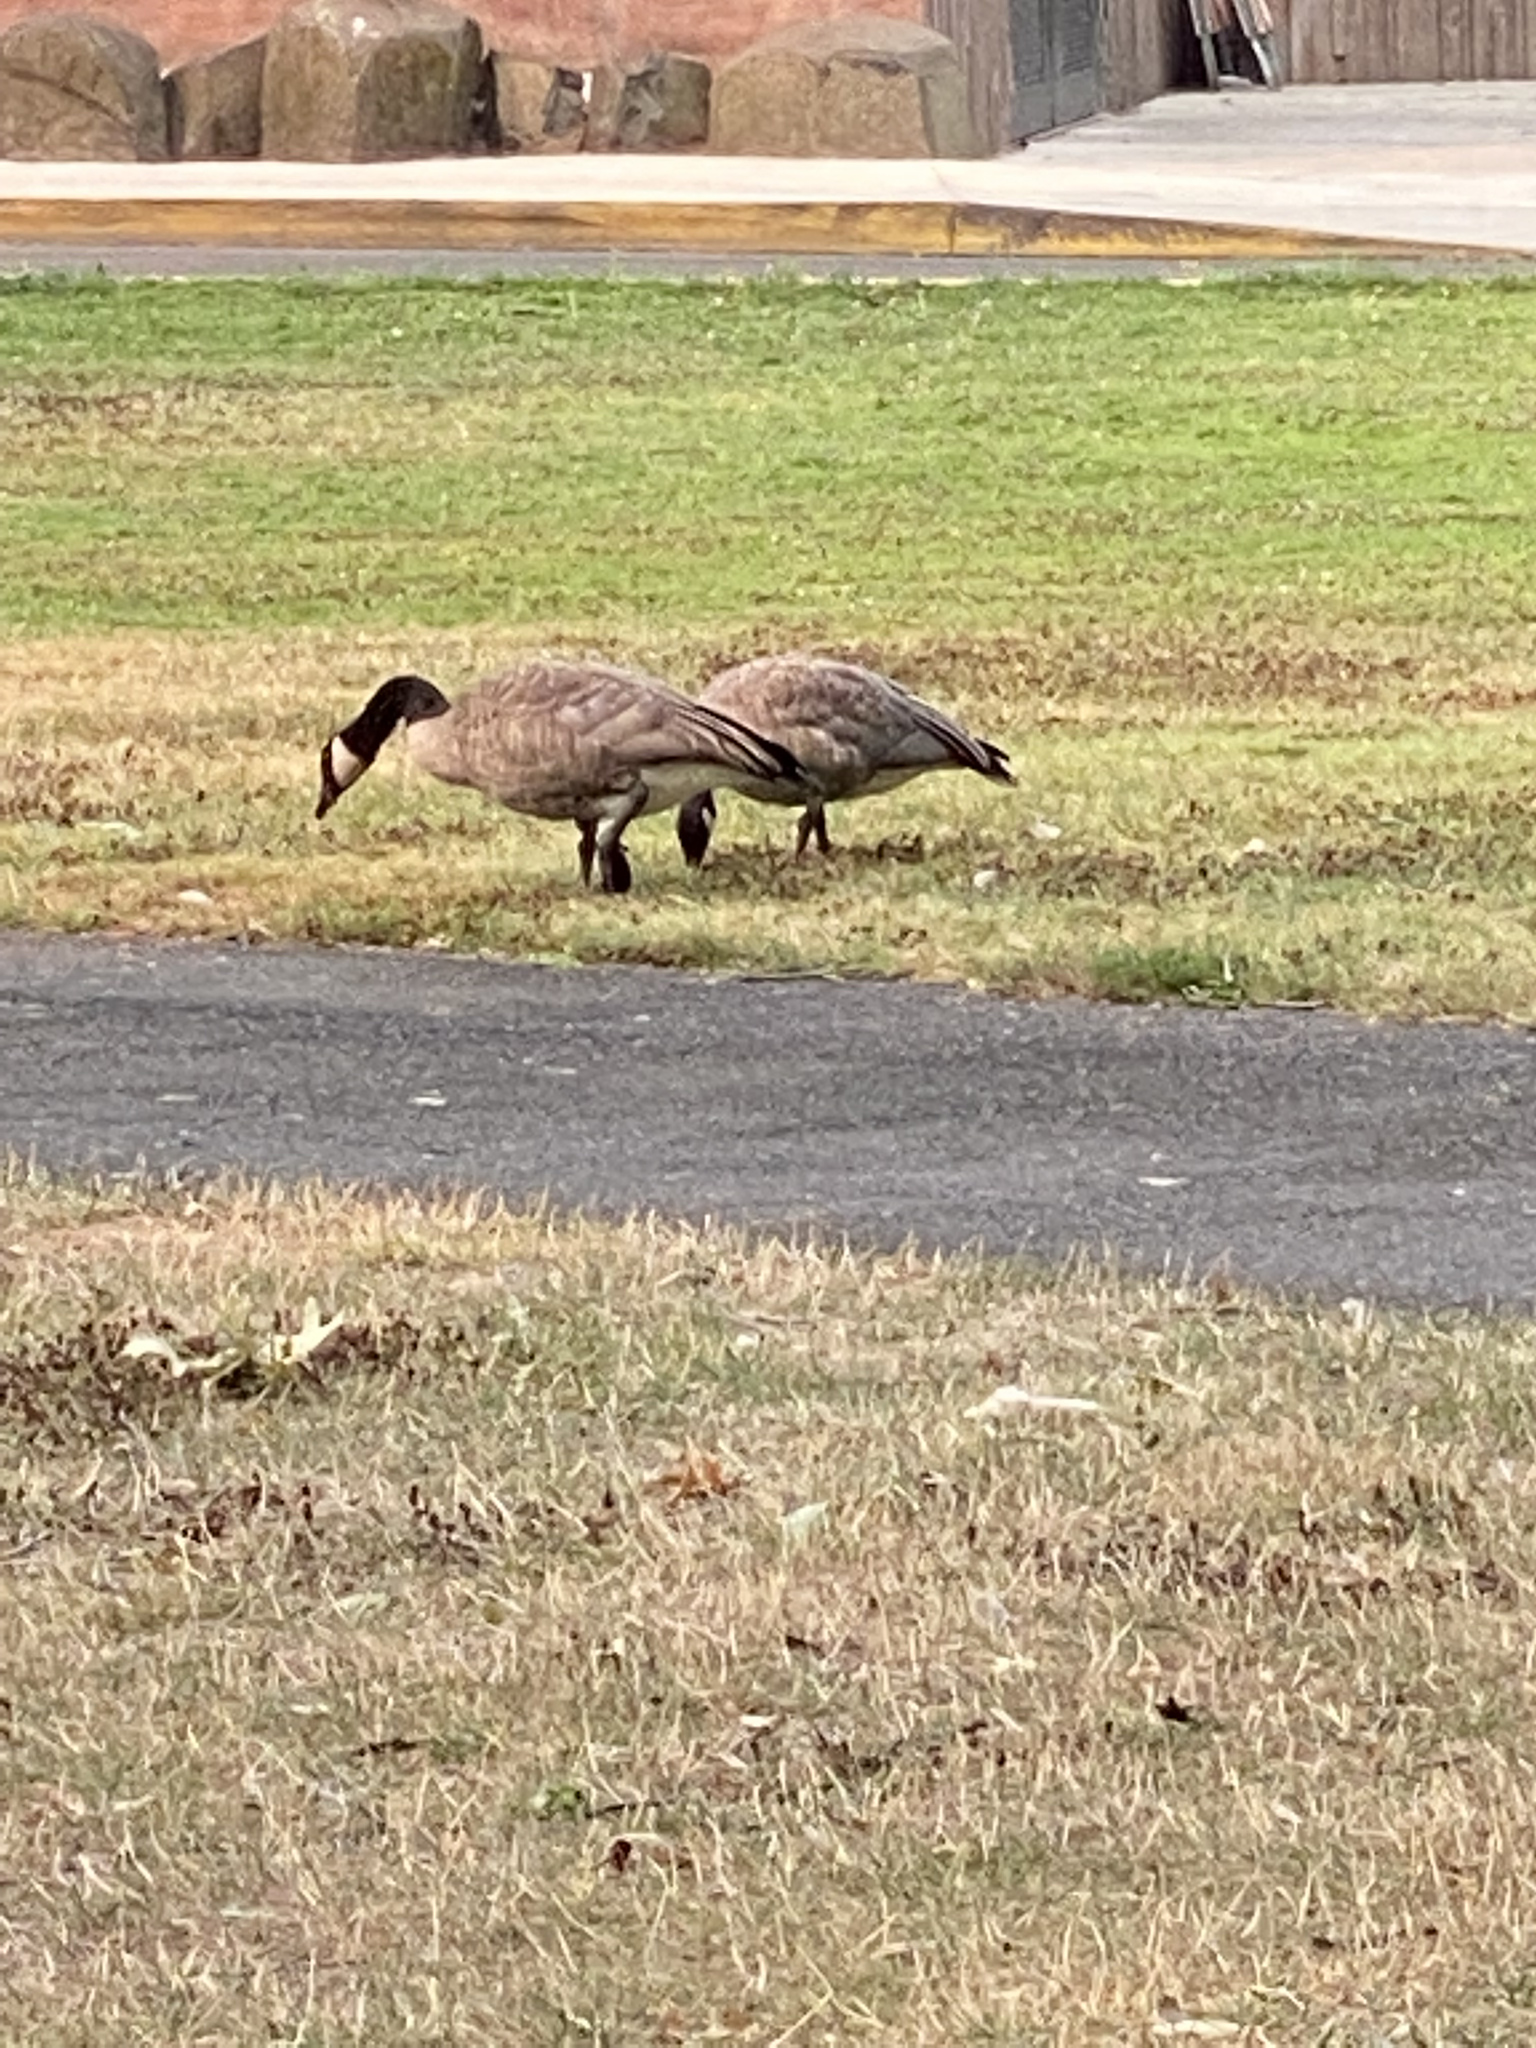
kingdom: Animalia
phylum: Chordata
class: Aves
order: Anseriformes
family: Anatidae
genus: Branta
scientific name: Branta canadensis
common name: Canada goose
